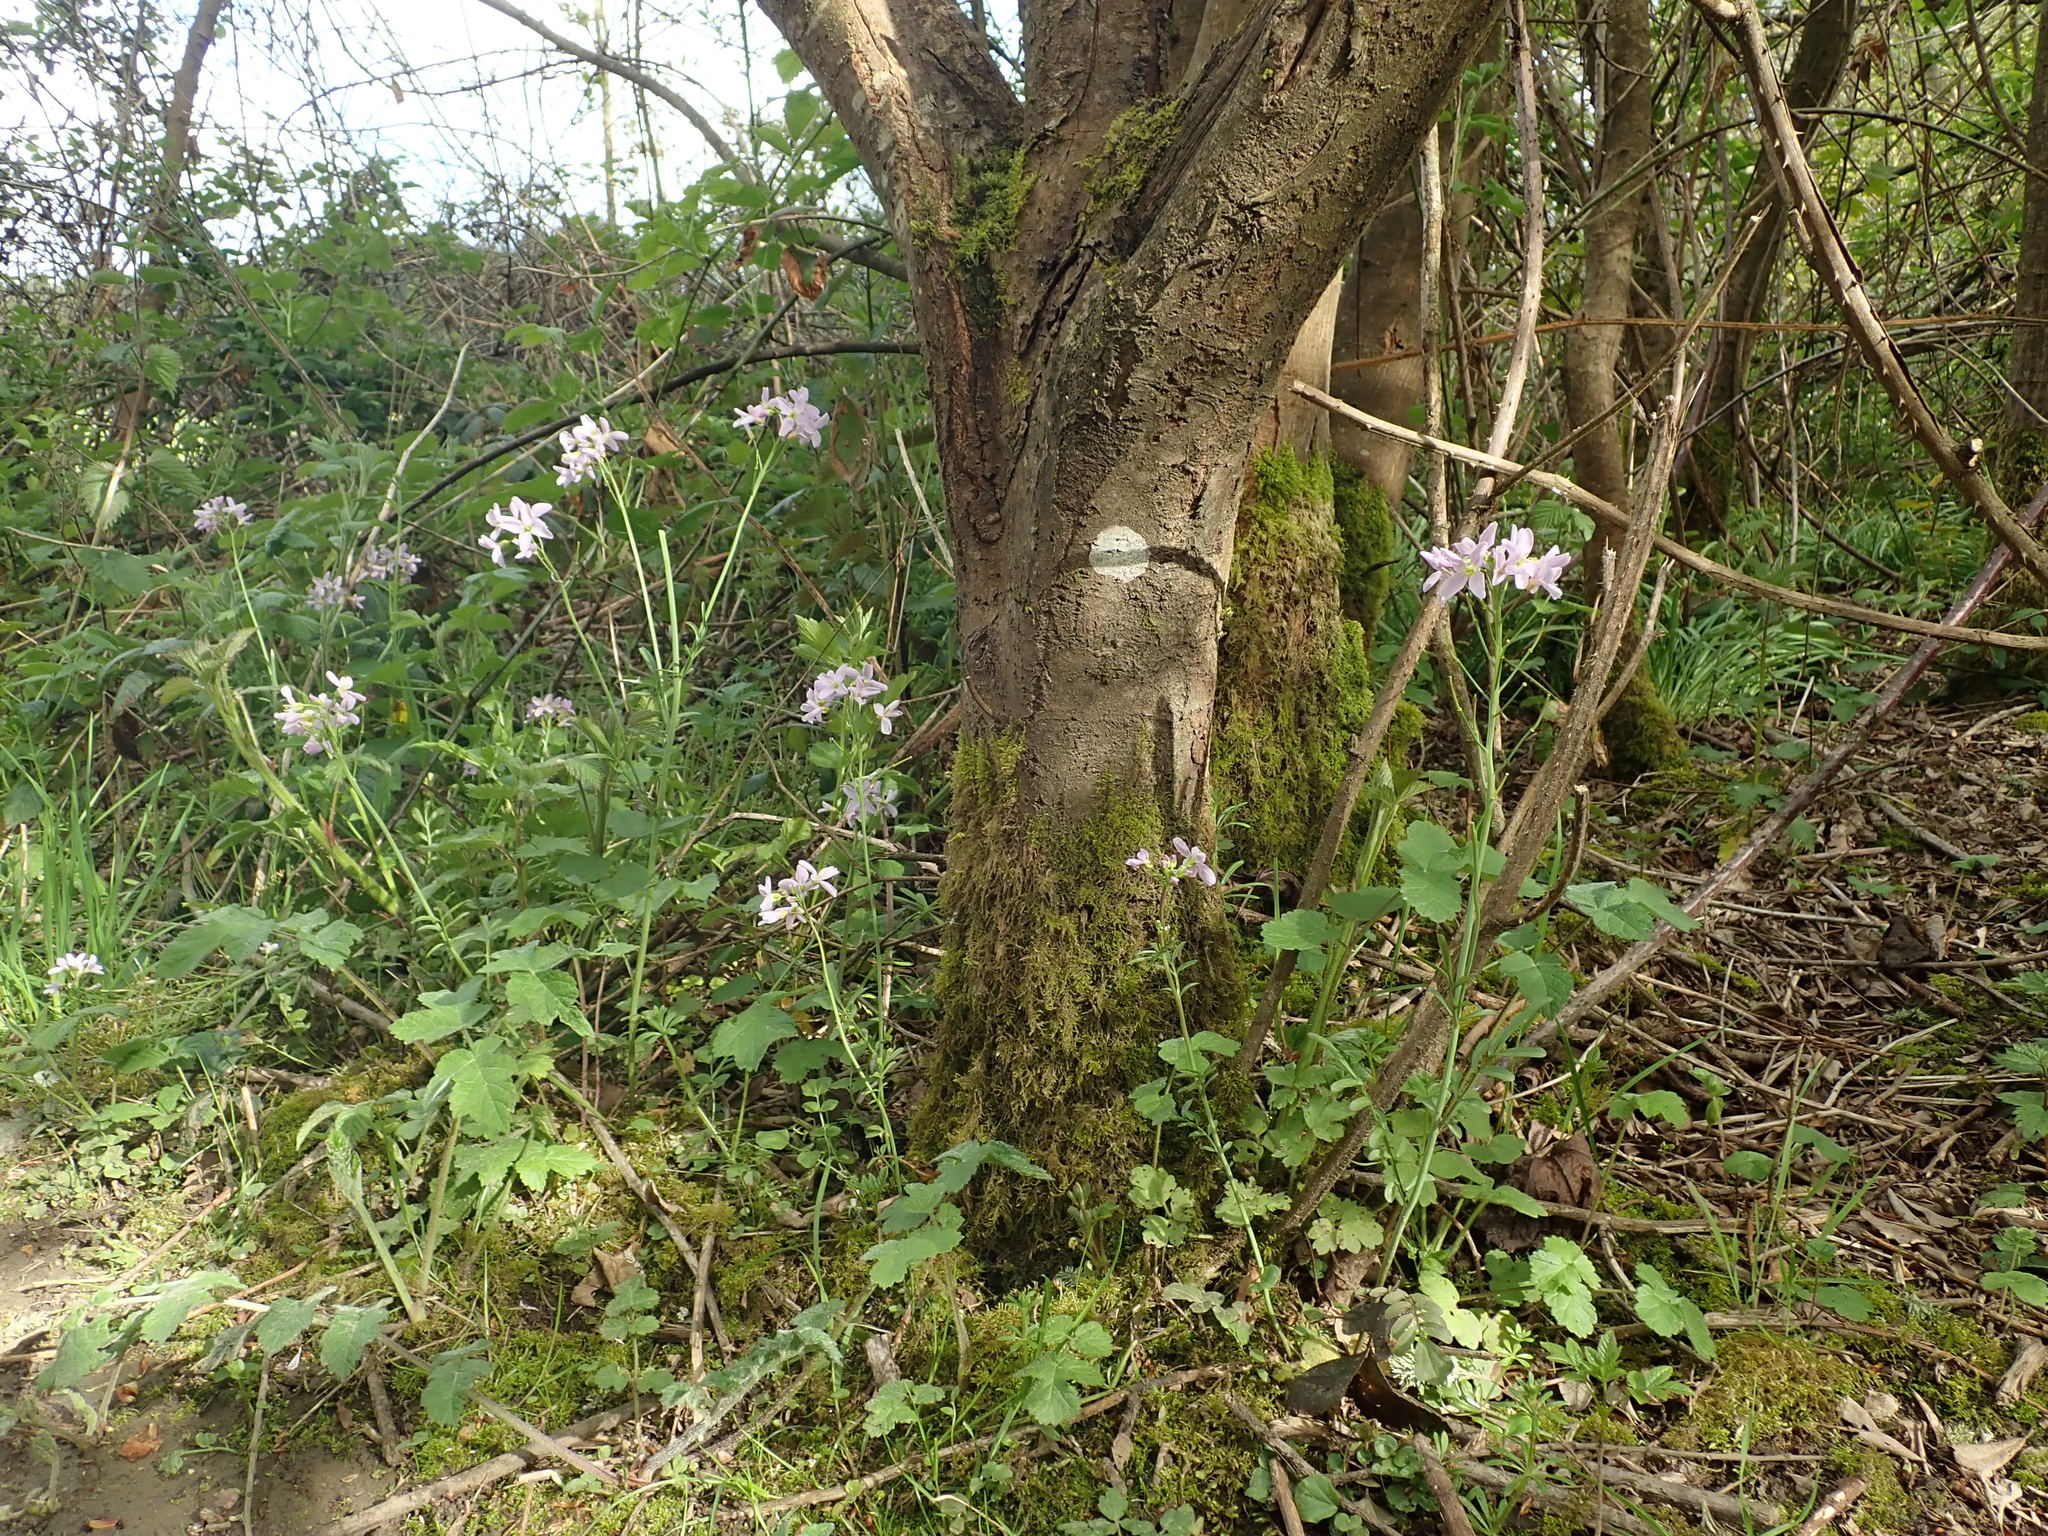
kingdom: Plantae
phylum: Tracheophyta
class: Magnoliopsida
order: Brassicales
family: Brassicaceae
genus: Cardamine
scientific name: Cardamine pratensis
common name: Cuckoo flower
